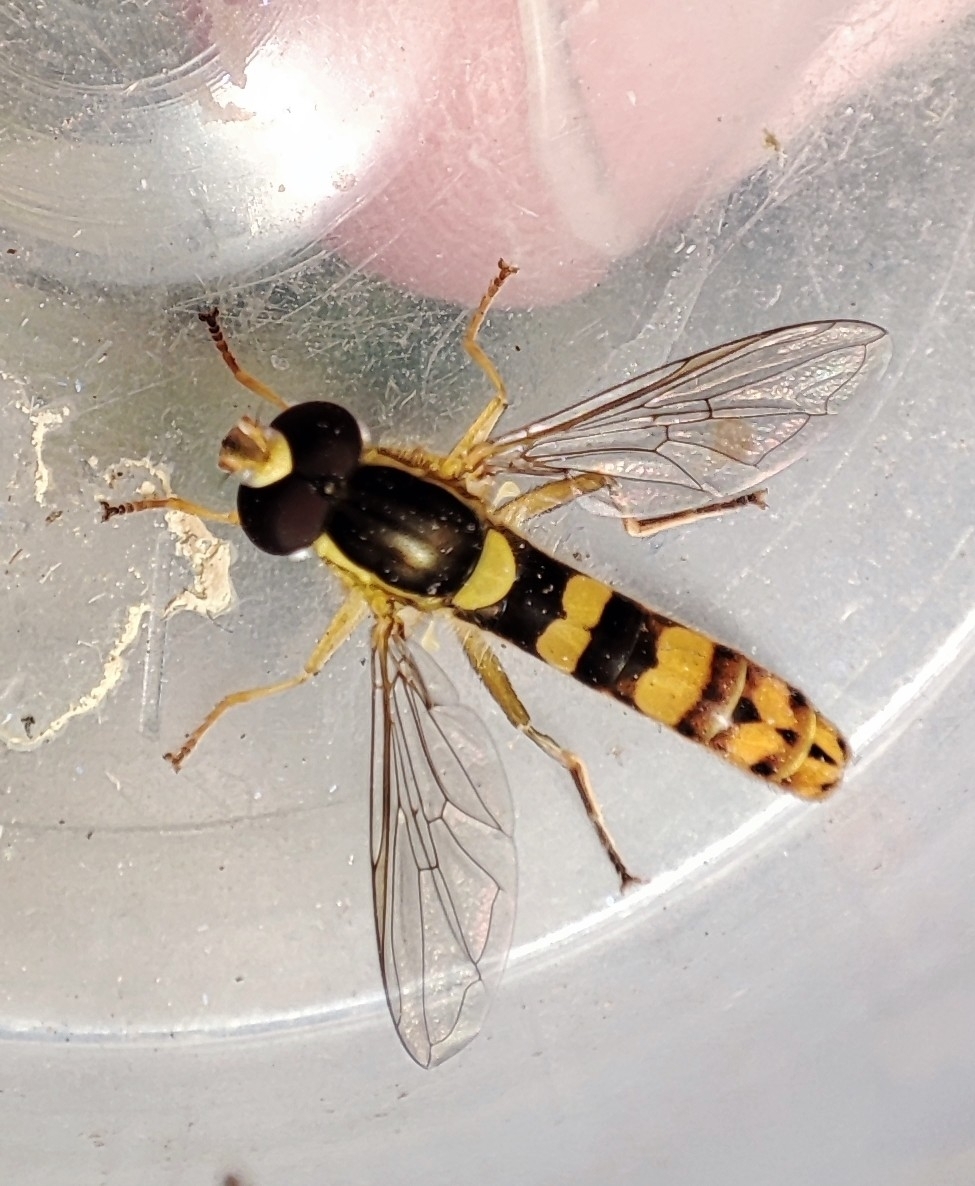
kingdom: Animalia
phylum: Arthropoda
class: Insecta
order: Diptera
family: Syrphidae
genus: Sphaerophoria
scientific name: Sphaerophoria scripta
